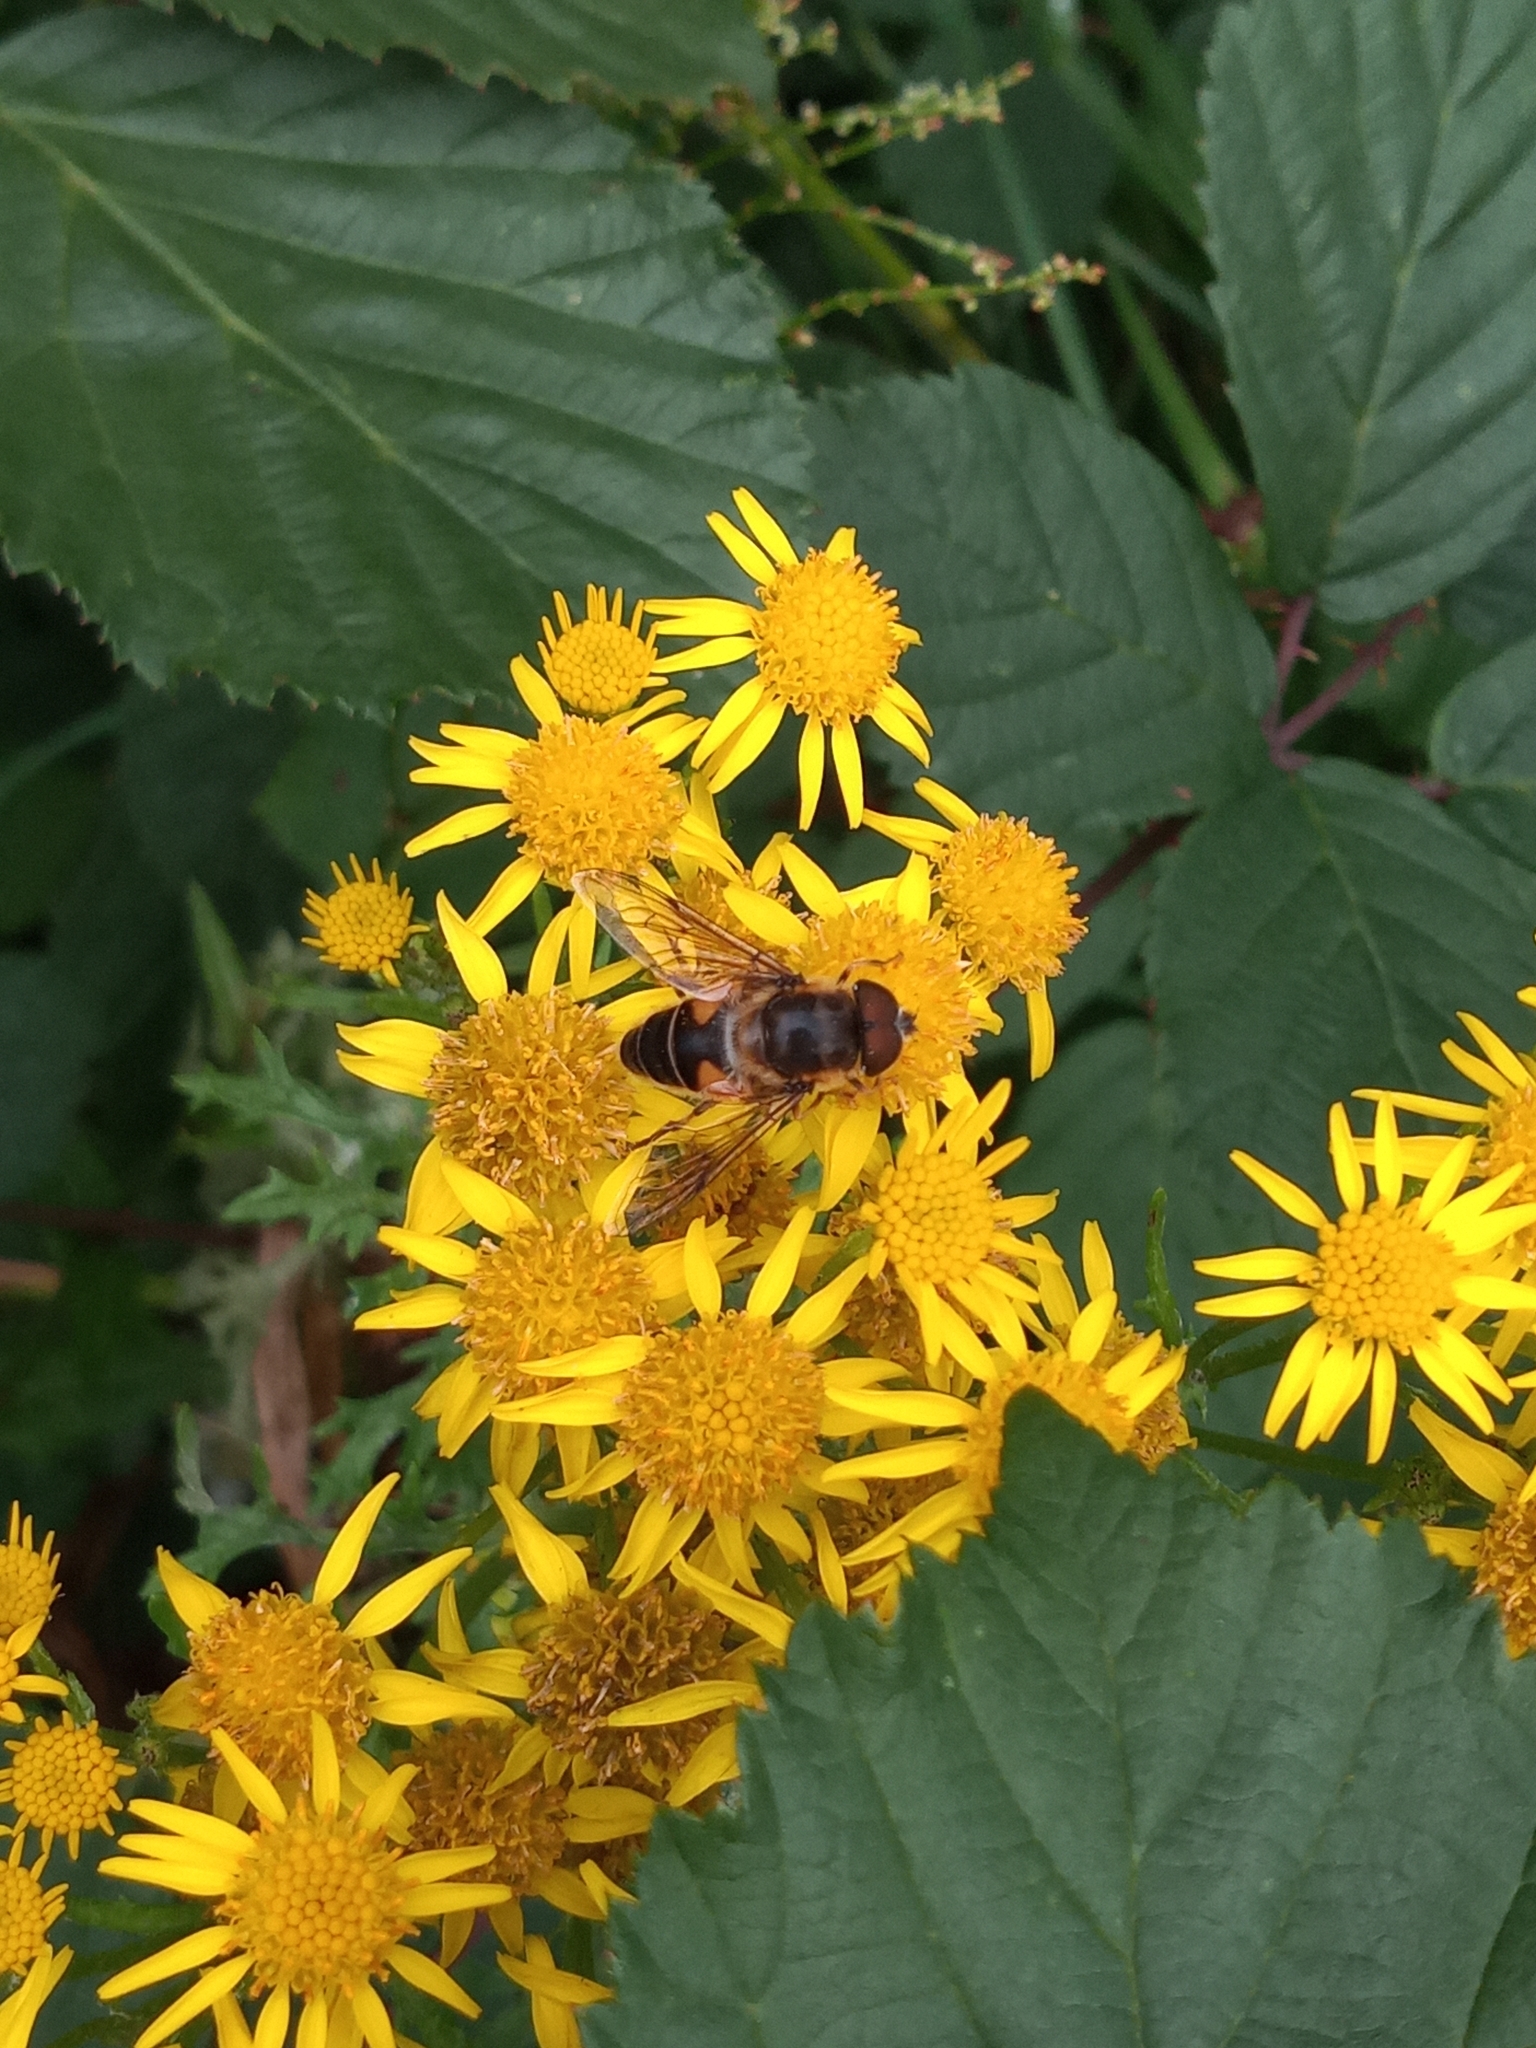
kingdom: Animalia
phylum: Arthropoda
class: Insecta
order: Diptera
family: Syrphidae
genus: Eristalis
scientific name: Eristalis pertinax
